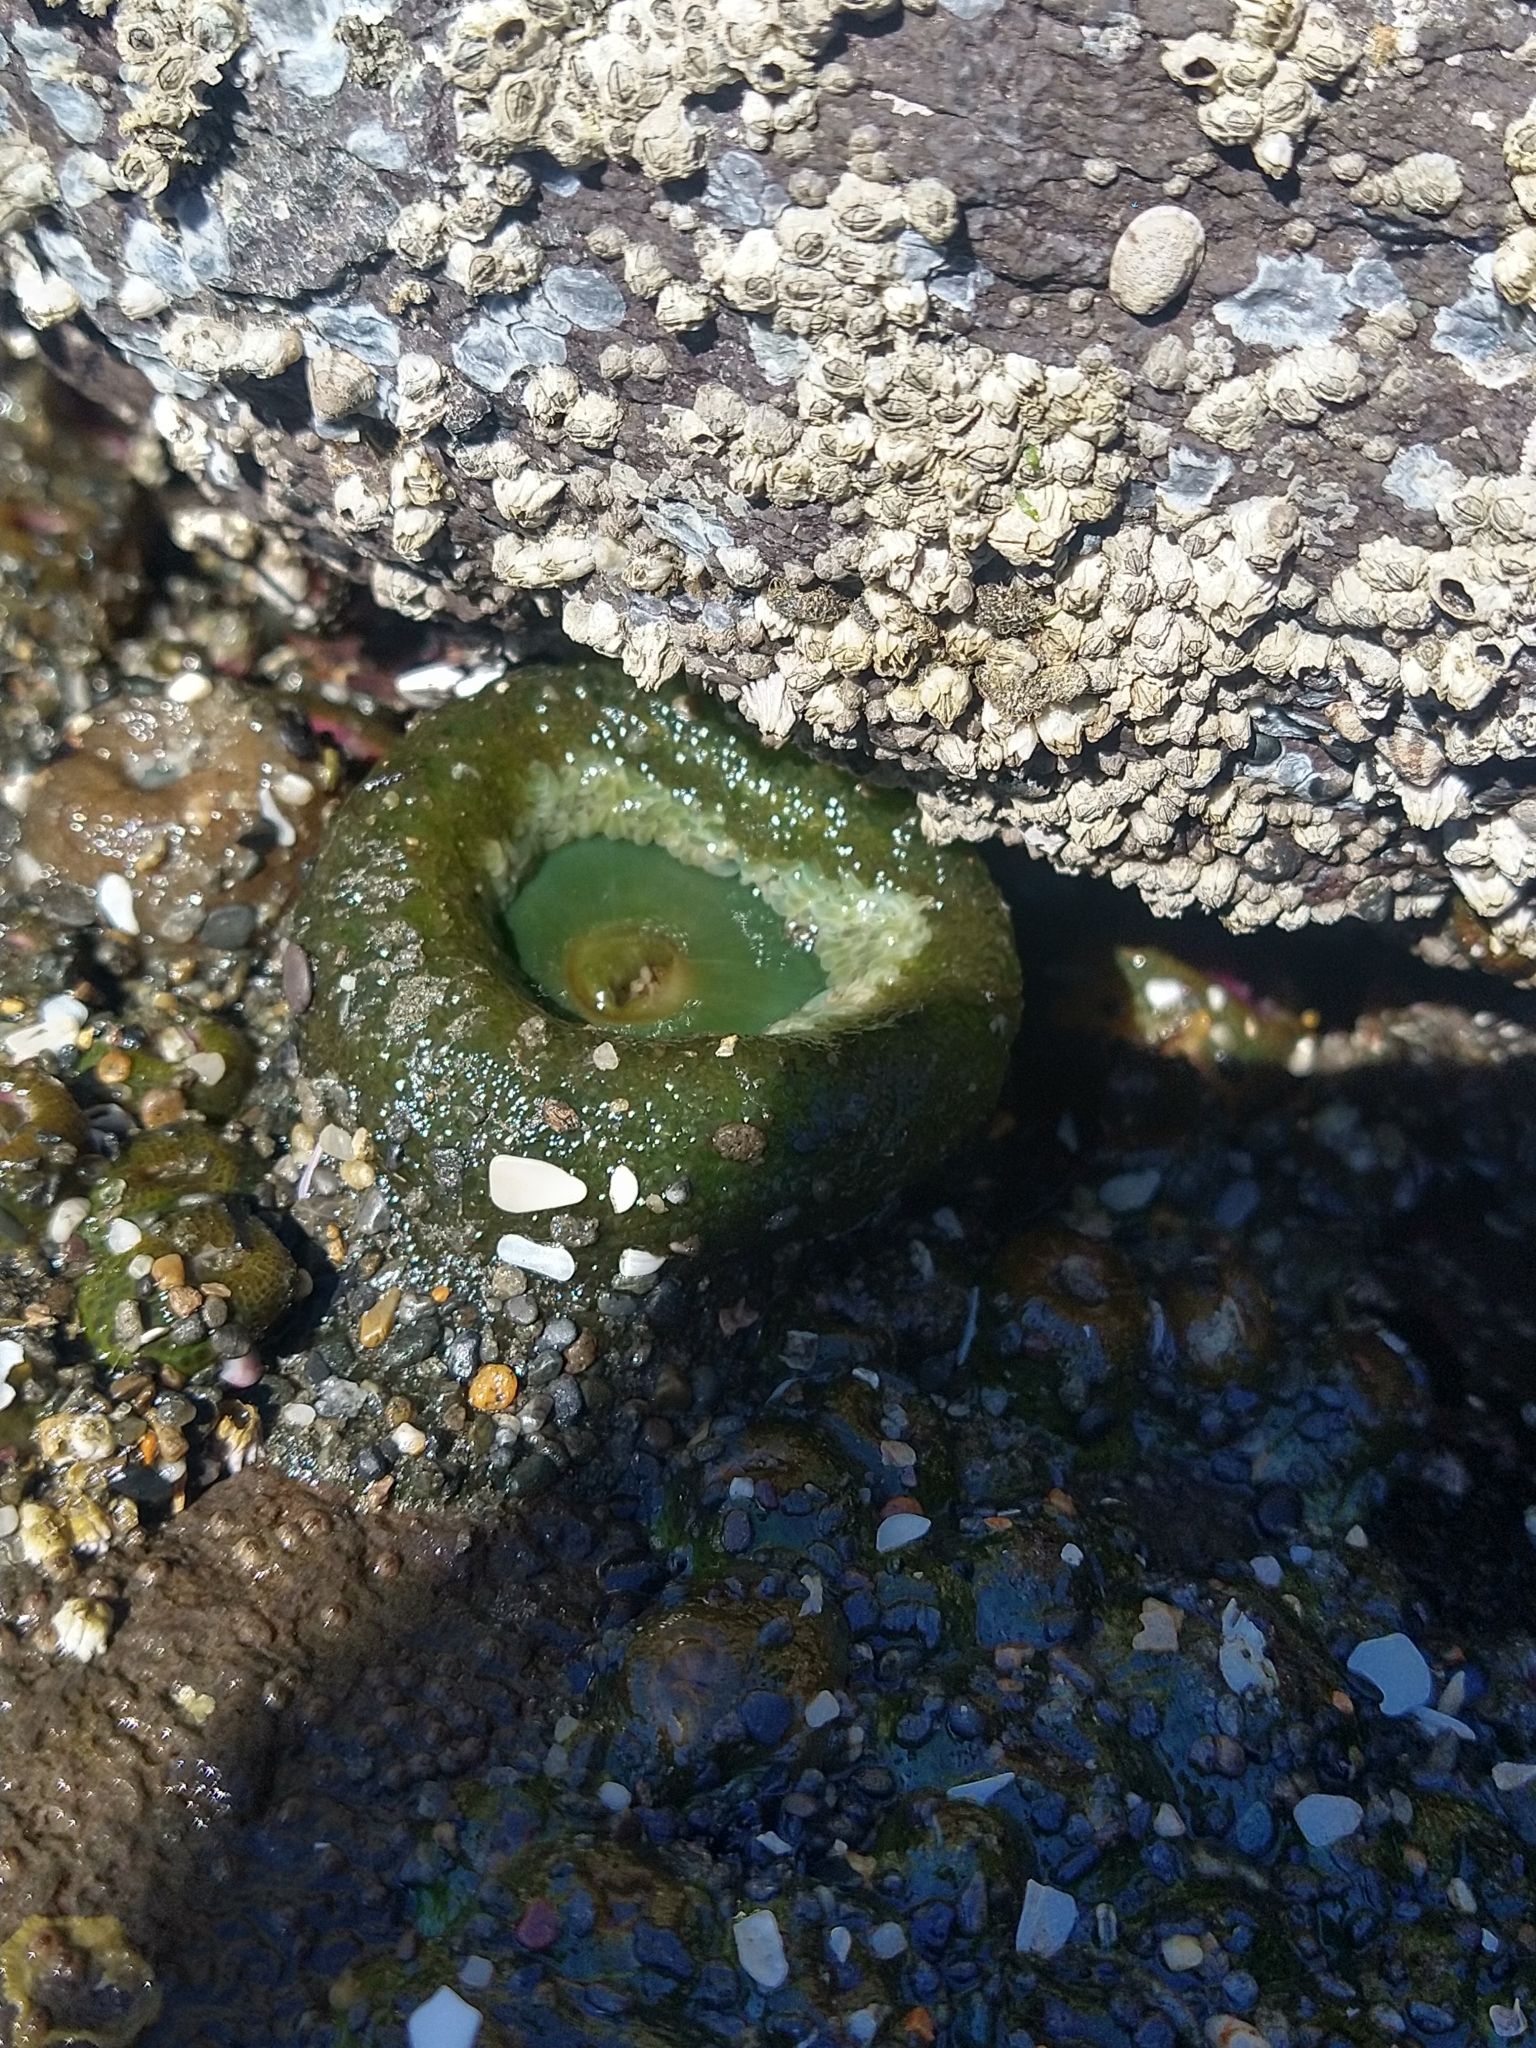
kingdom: Animalia
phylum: Cnidaria
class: Anthozoa
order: Actiniaria
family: Actiniidae
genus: Anthopleura
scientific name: Anthopleura xanthogrammica
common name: Giant green anemone
